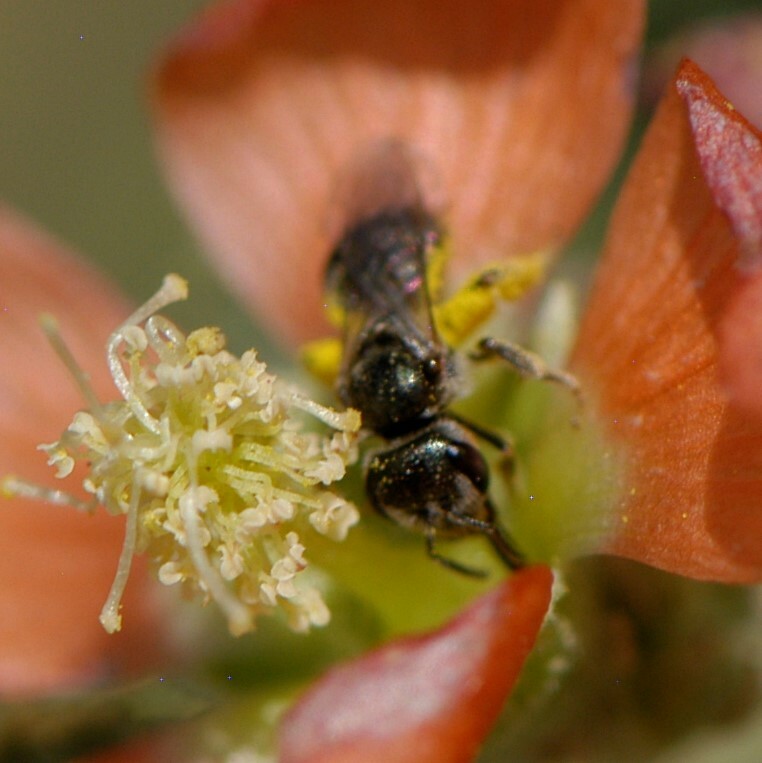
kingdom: Animalia
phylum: Arthropoda
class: Insecta
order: Hymenoptera
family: Halictidae
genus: Halictus
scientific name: Halictus tripartitus
